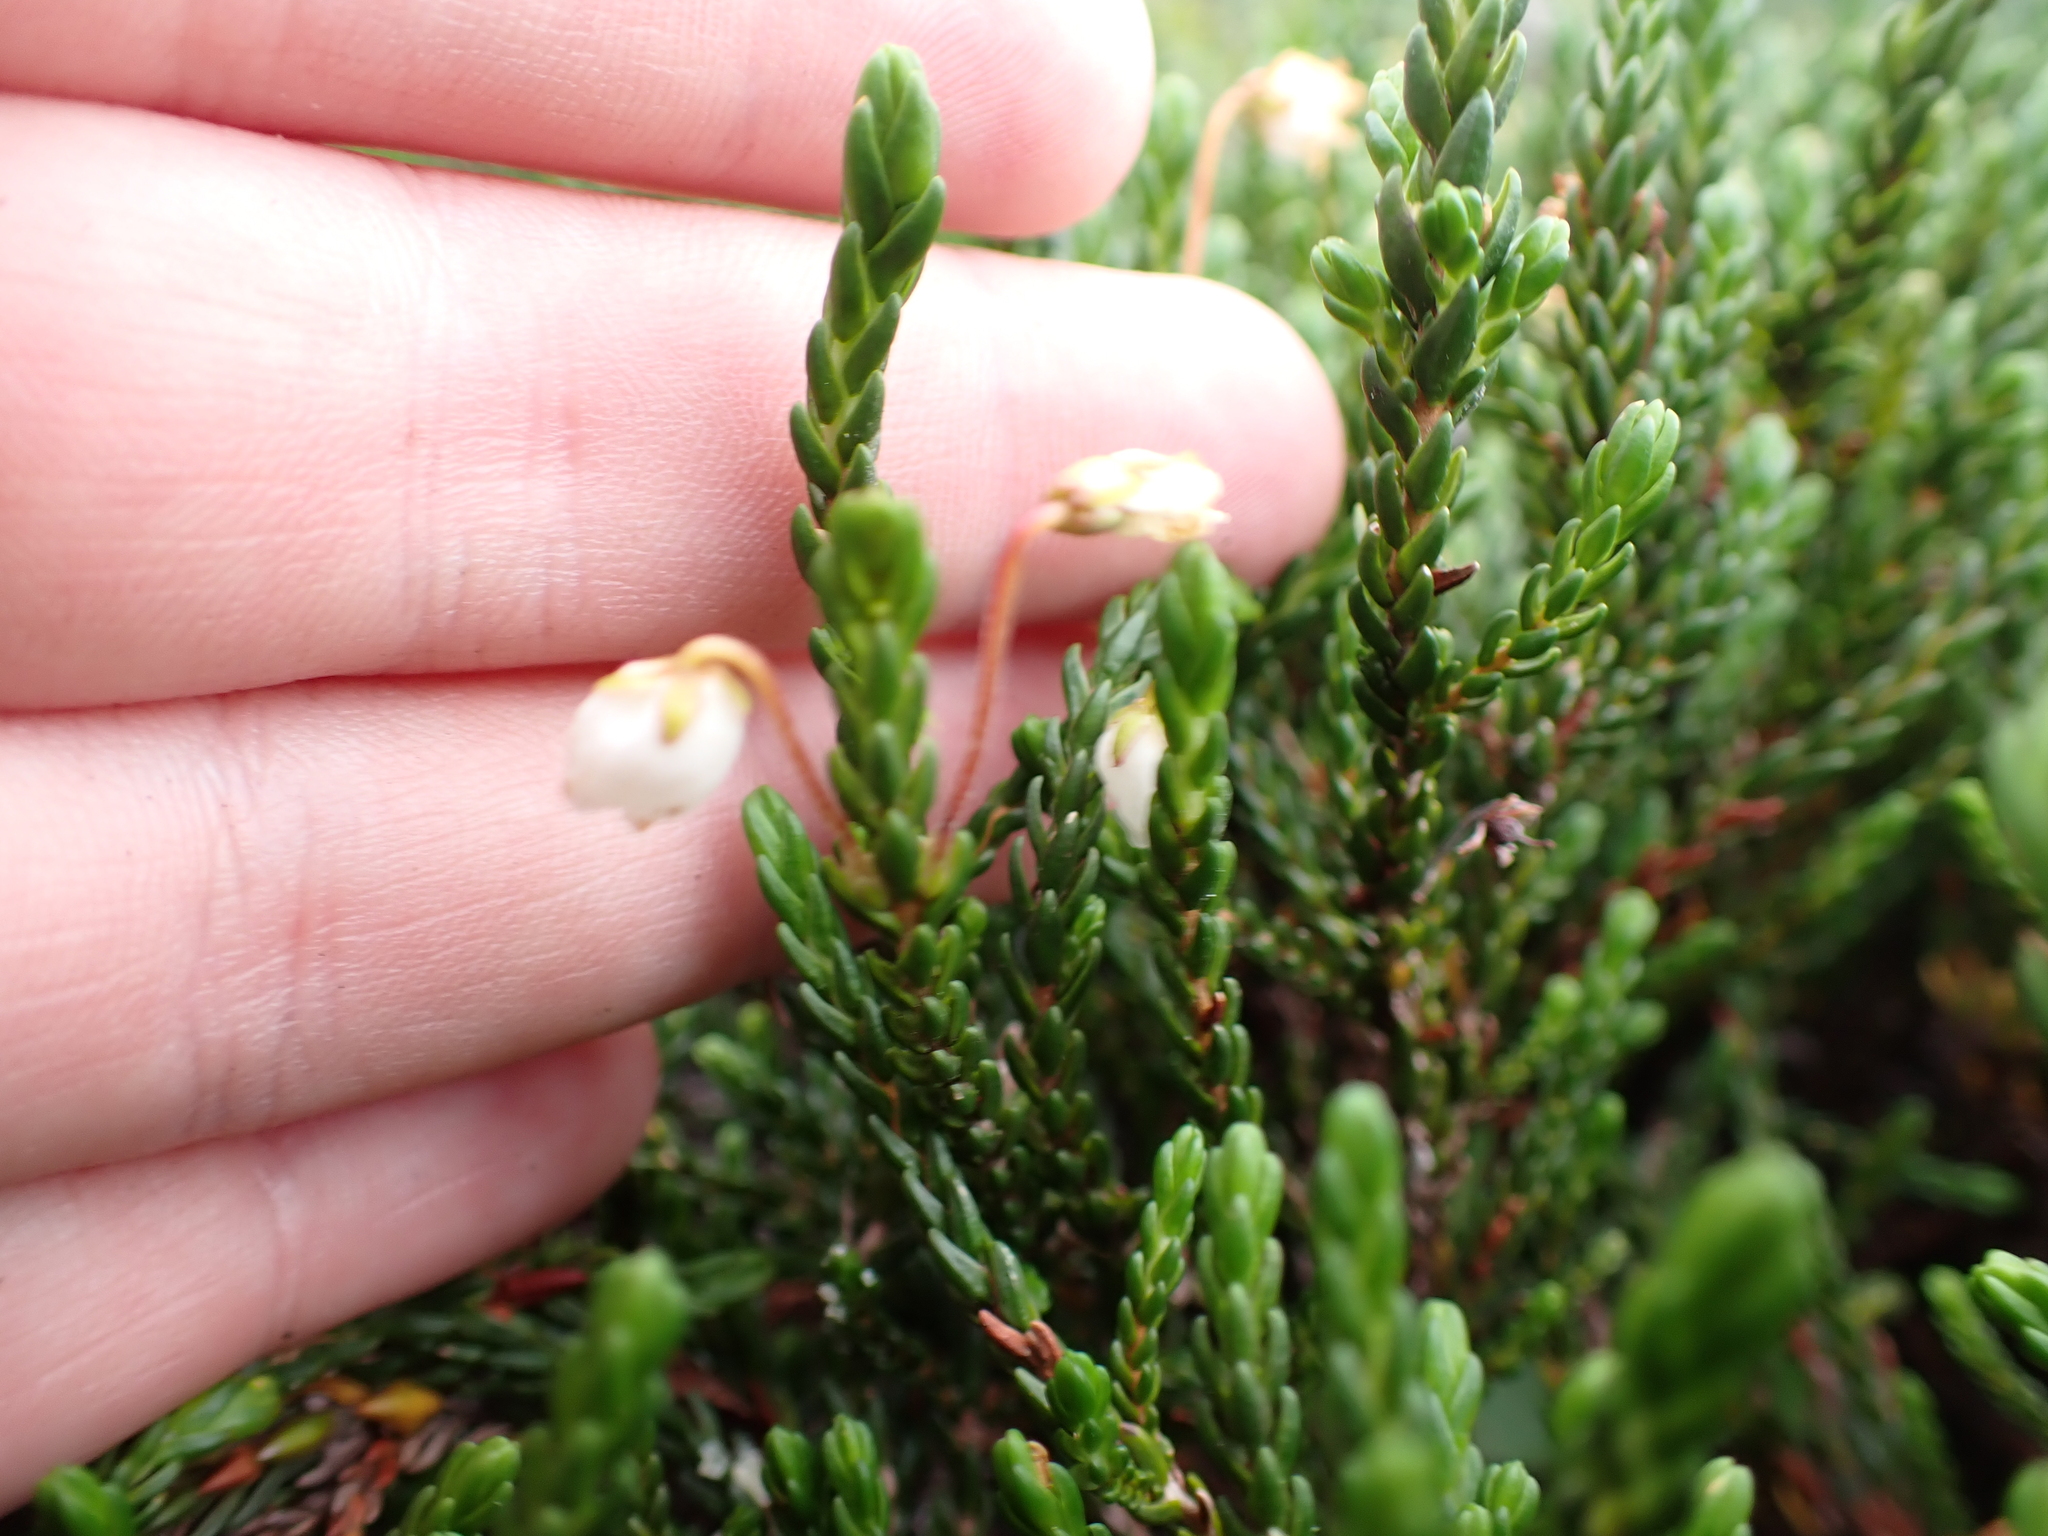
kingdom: Plantae
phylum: Tracheophyta
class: Magnoliopsida
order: Ericales
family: Ericaceae
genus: Cassiope
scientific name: Cassiope mertensiana
